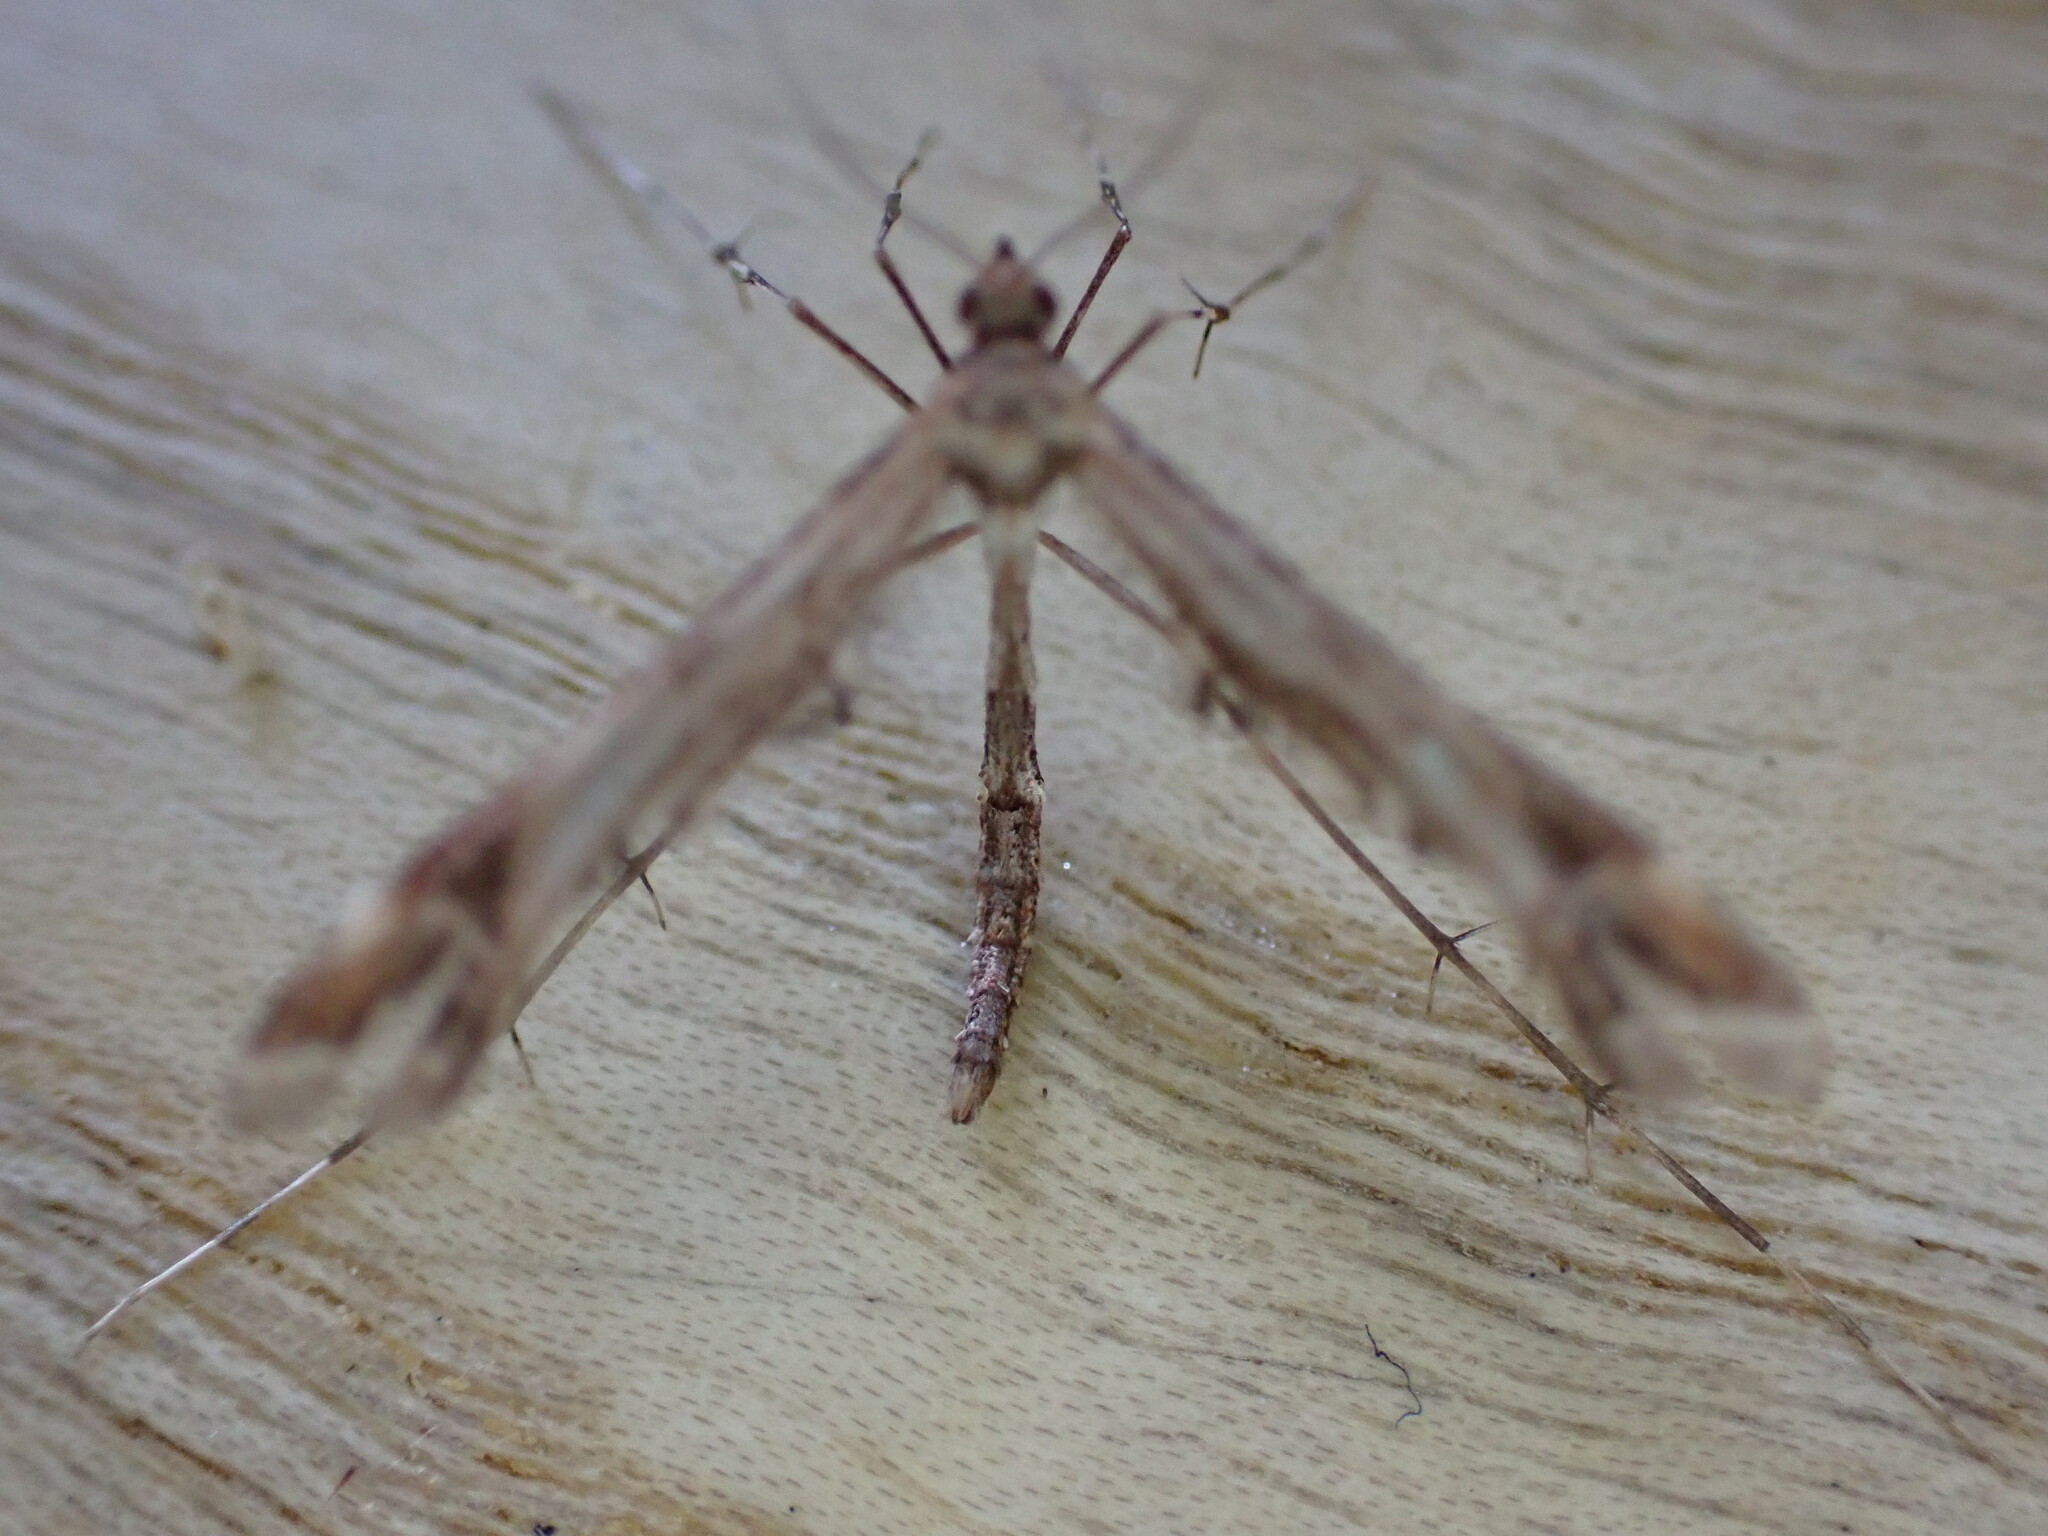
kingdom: Animalia
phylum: Arthropoda
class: Insecta
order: Lepidoptera
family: Pterophoridae
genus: Amblyptilia
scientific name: Amblyptilia acanthadactyla
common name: Beautiful plume
